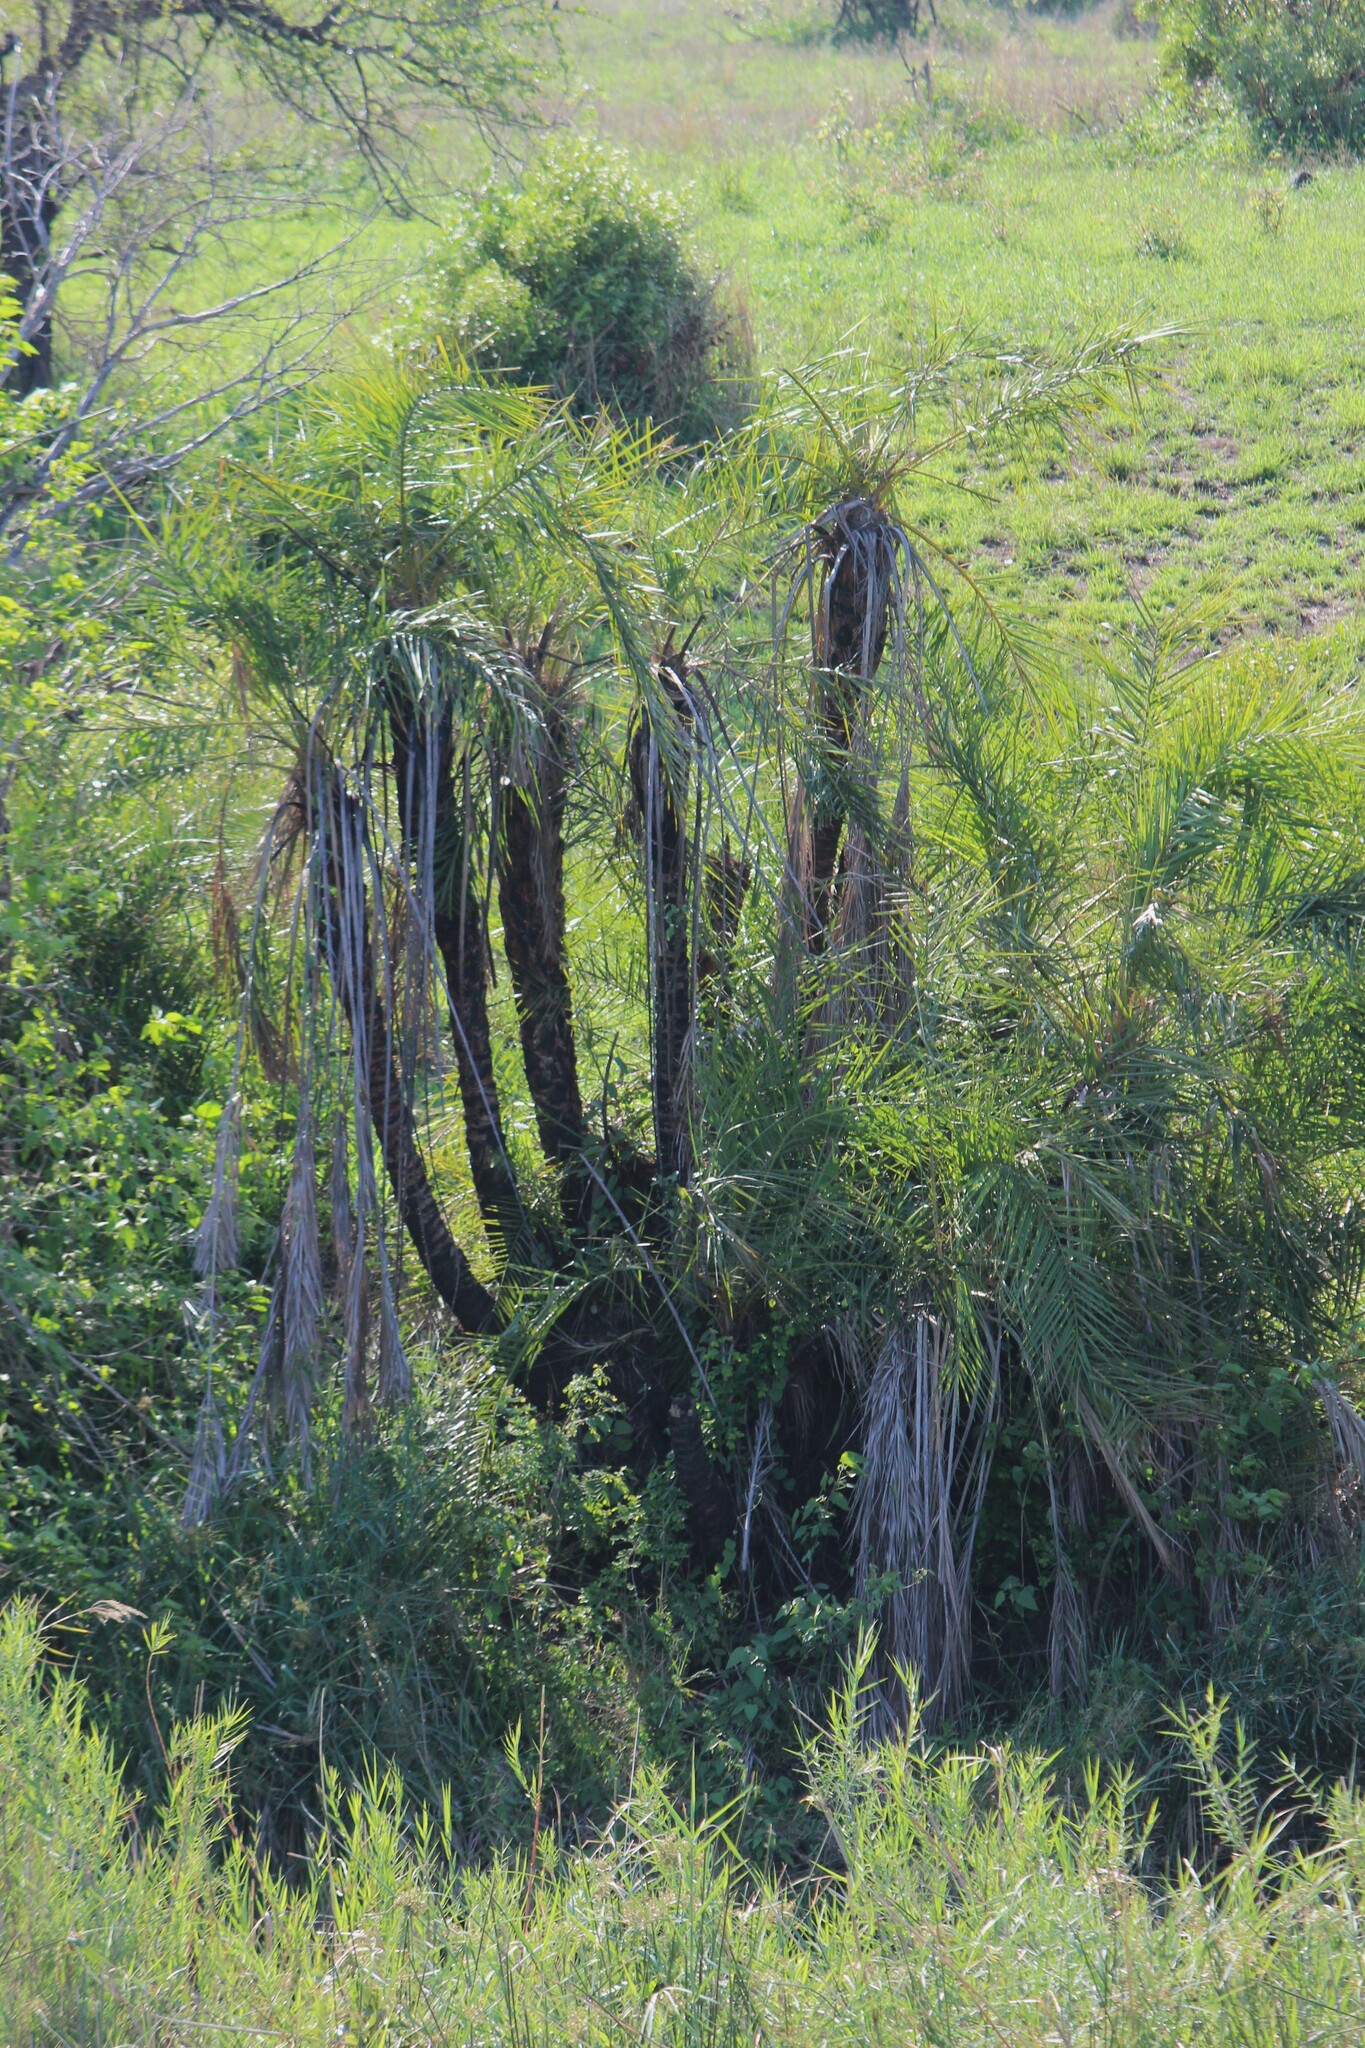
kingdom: Plantae
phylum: Tracheophyta
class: Liliopsida
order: Arecales
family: Arecaceae
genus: Phoenix
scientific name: Phoenix reclinata
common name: Senegal date palm
